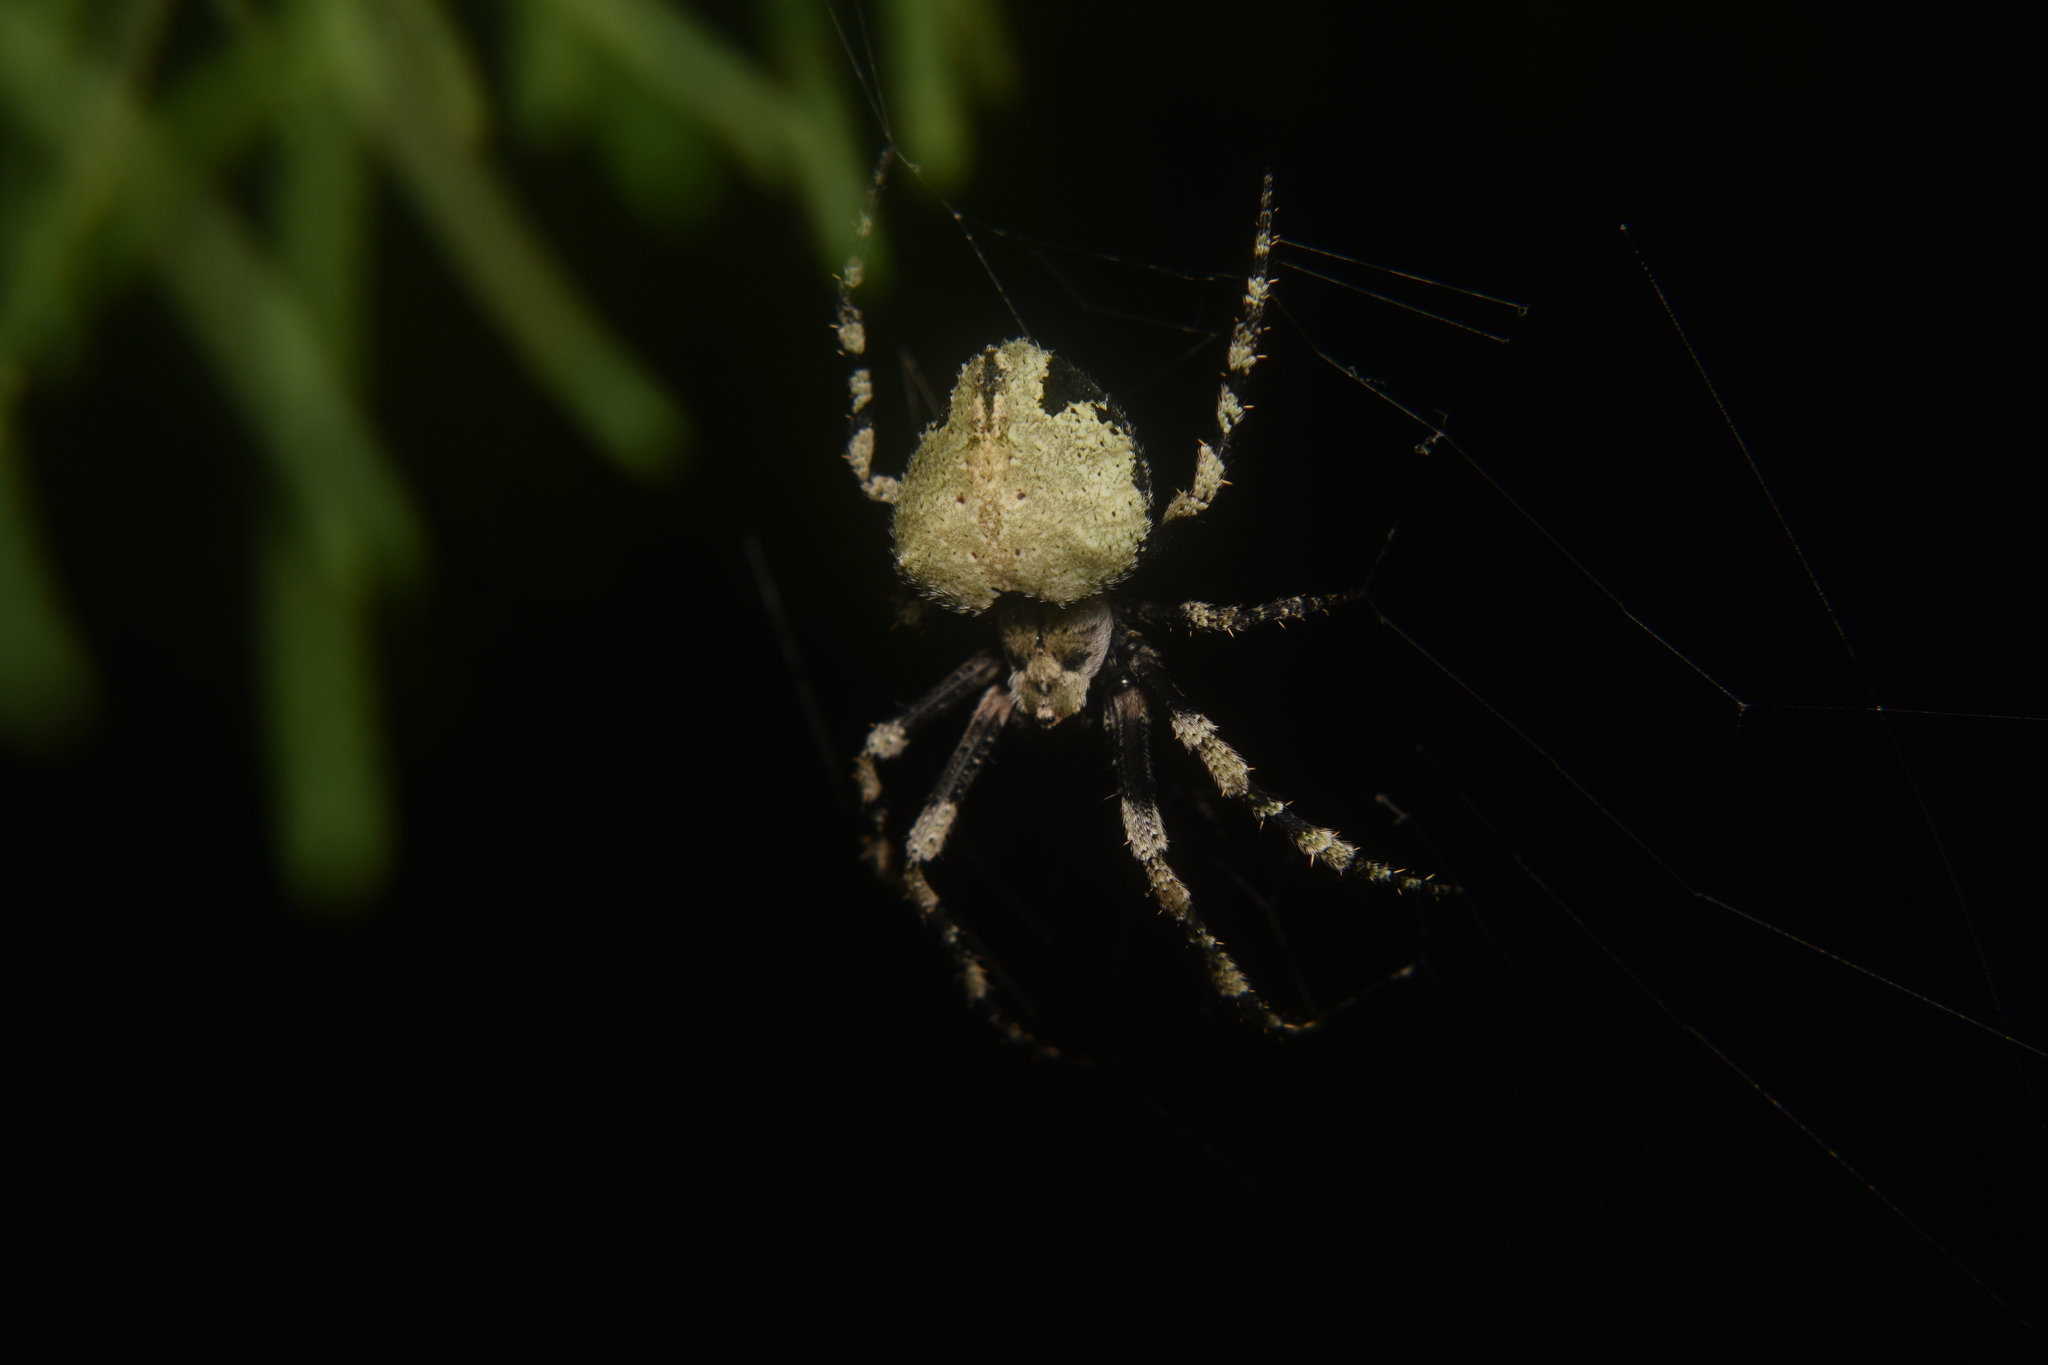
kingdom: Animalia
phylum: Arthropoda
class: Arachnida
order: Araneae
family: Araneidae
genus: Eustala
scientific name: Eustala semifoliata
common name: Orb weavers
